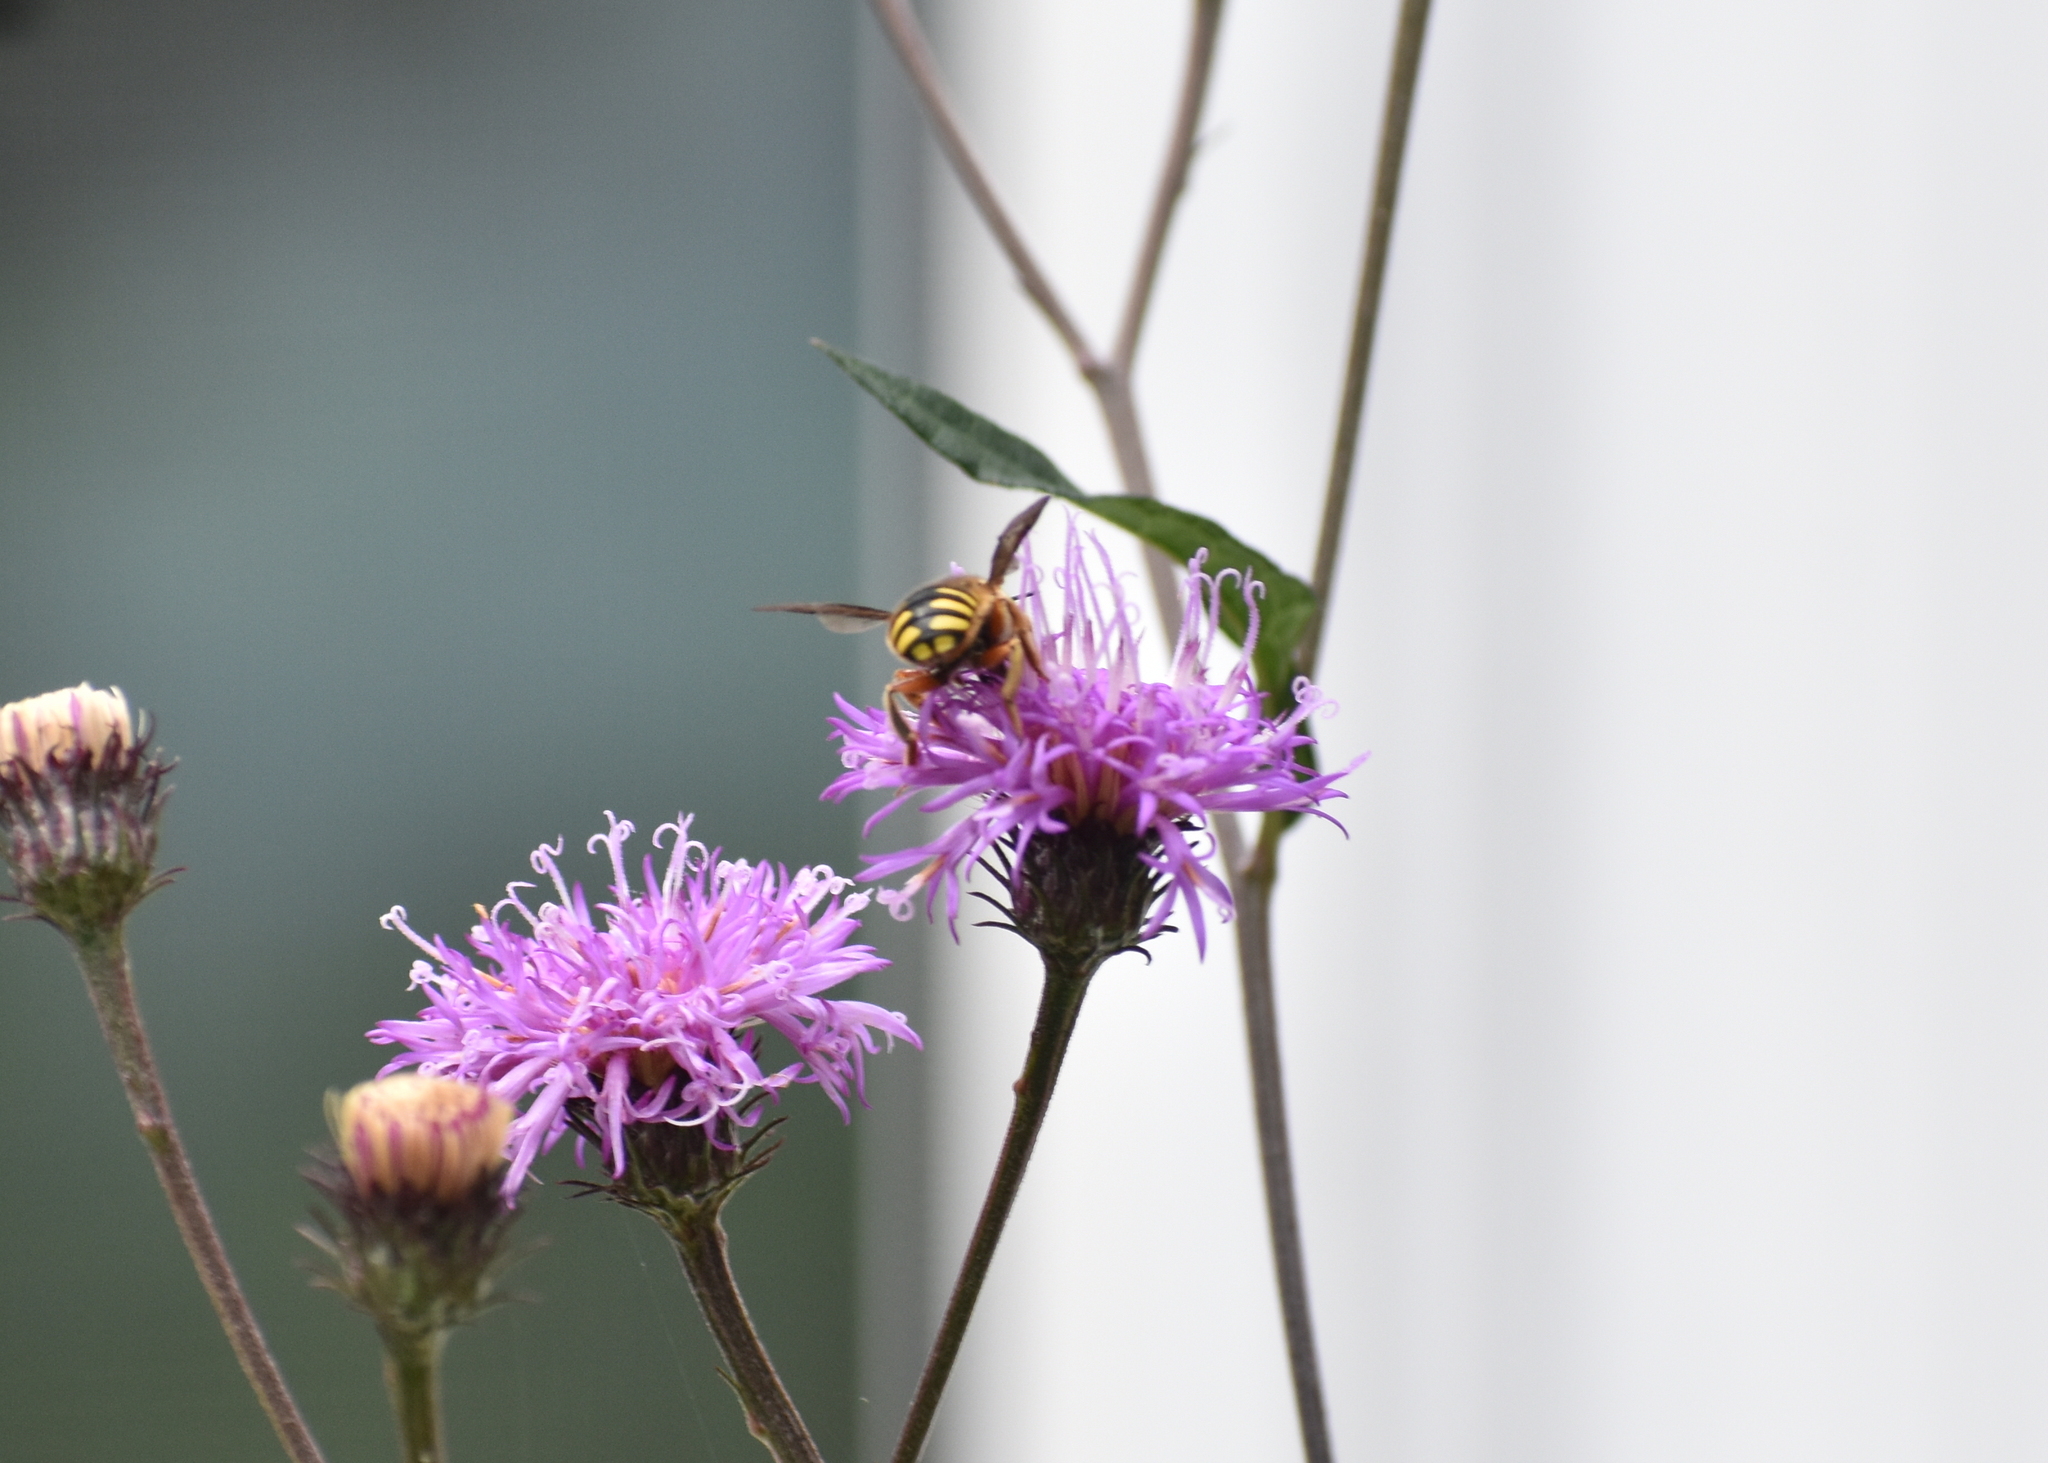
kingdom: Animalia
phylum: Arthropoda
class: Insecta
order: Hymenoptera
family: Megachilidae
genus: Anthidium
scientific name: Anthidium manicatum
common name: Wool carder bee
